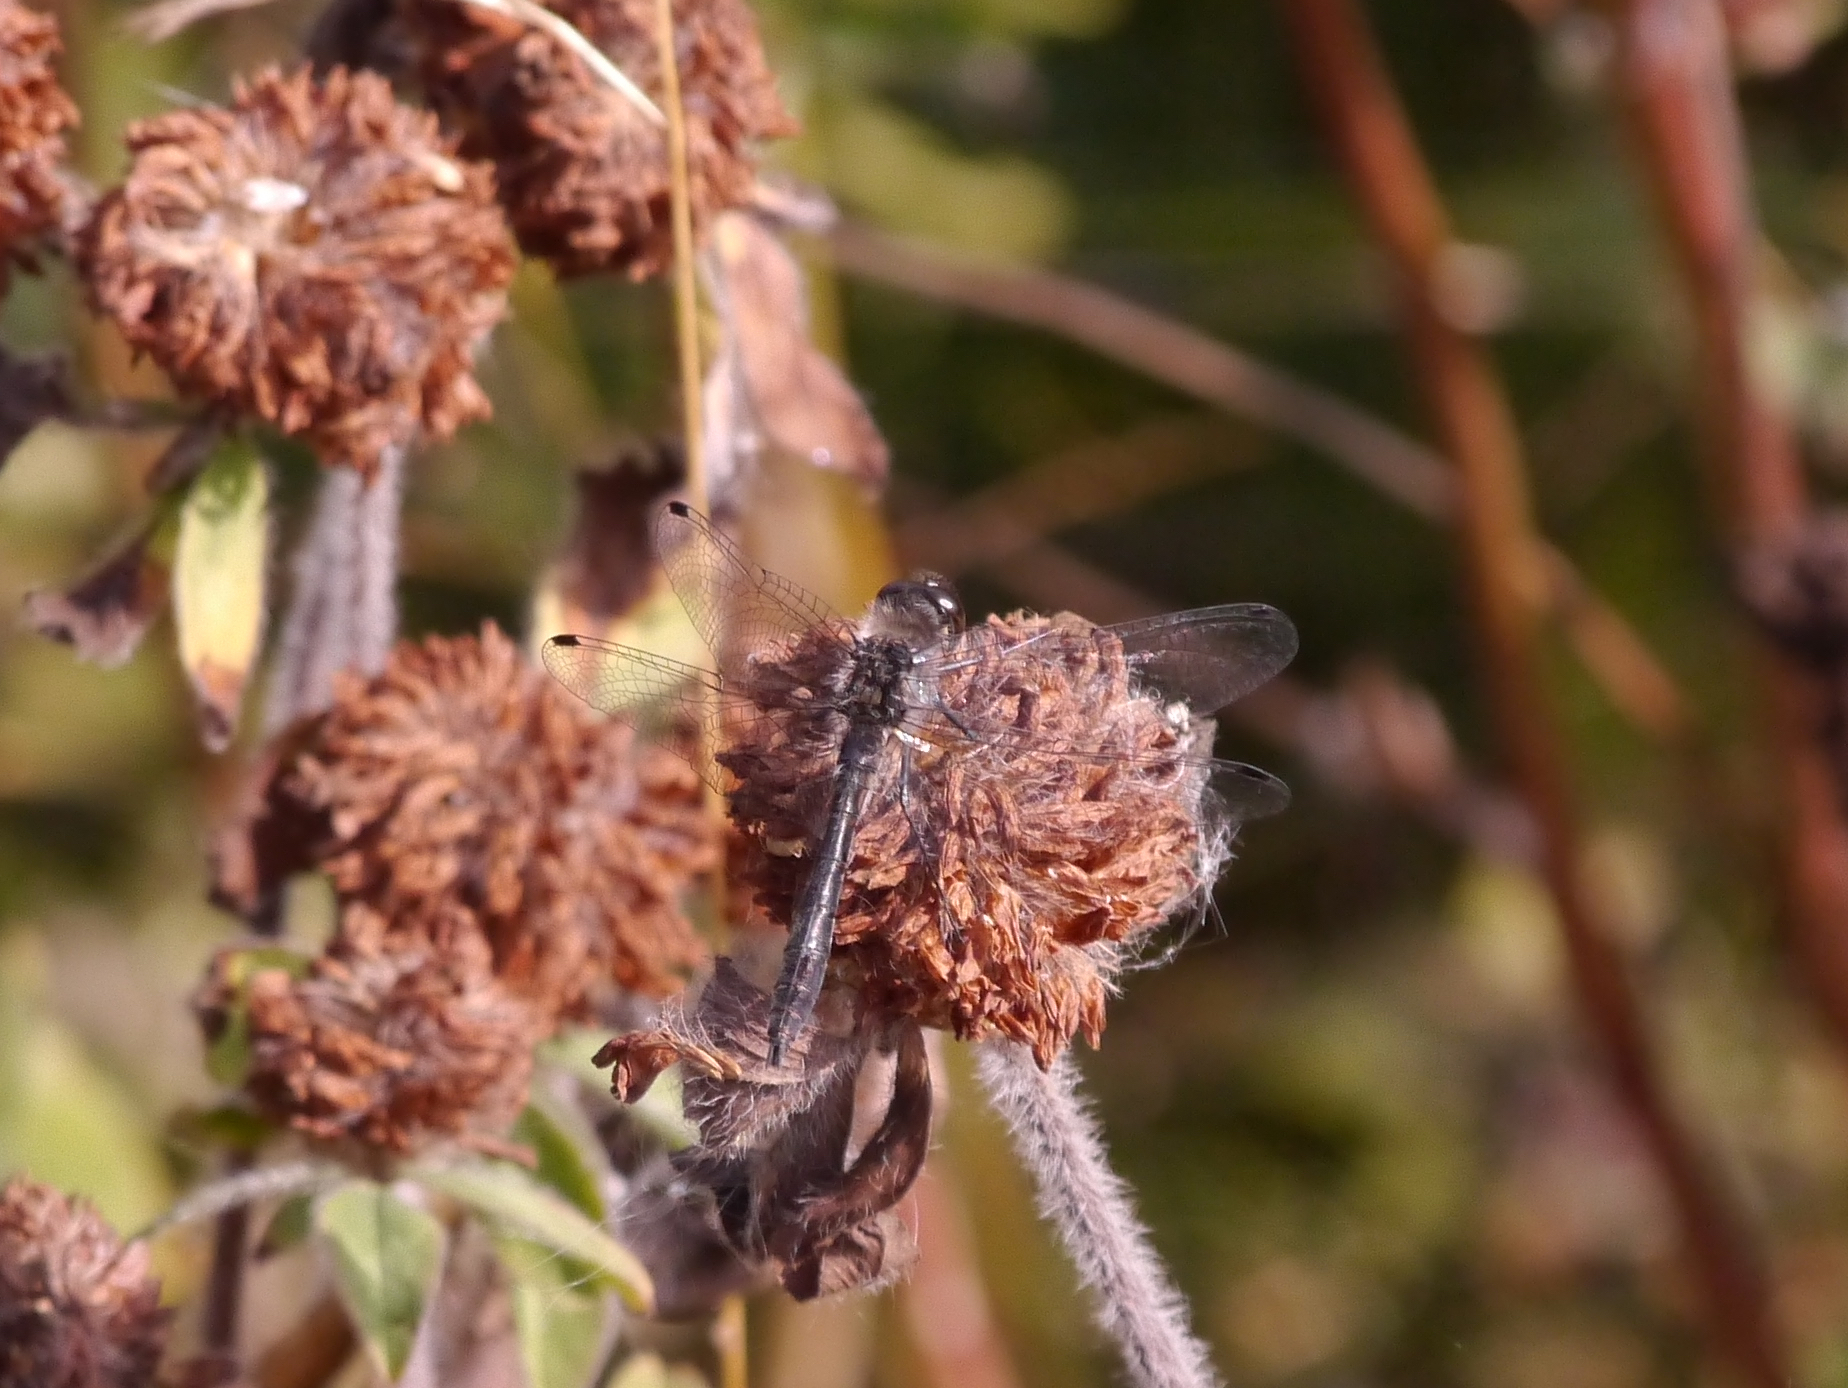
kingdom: Animalia
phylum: Arthropoda
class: Insecta
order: Odonata
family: Libellulidae
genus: Sympetrum
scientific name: Sympetrum danae
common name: Black darter
